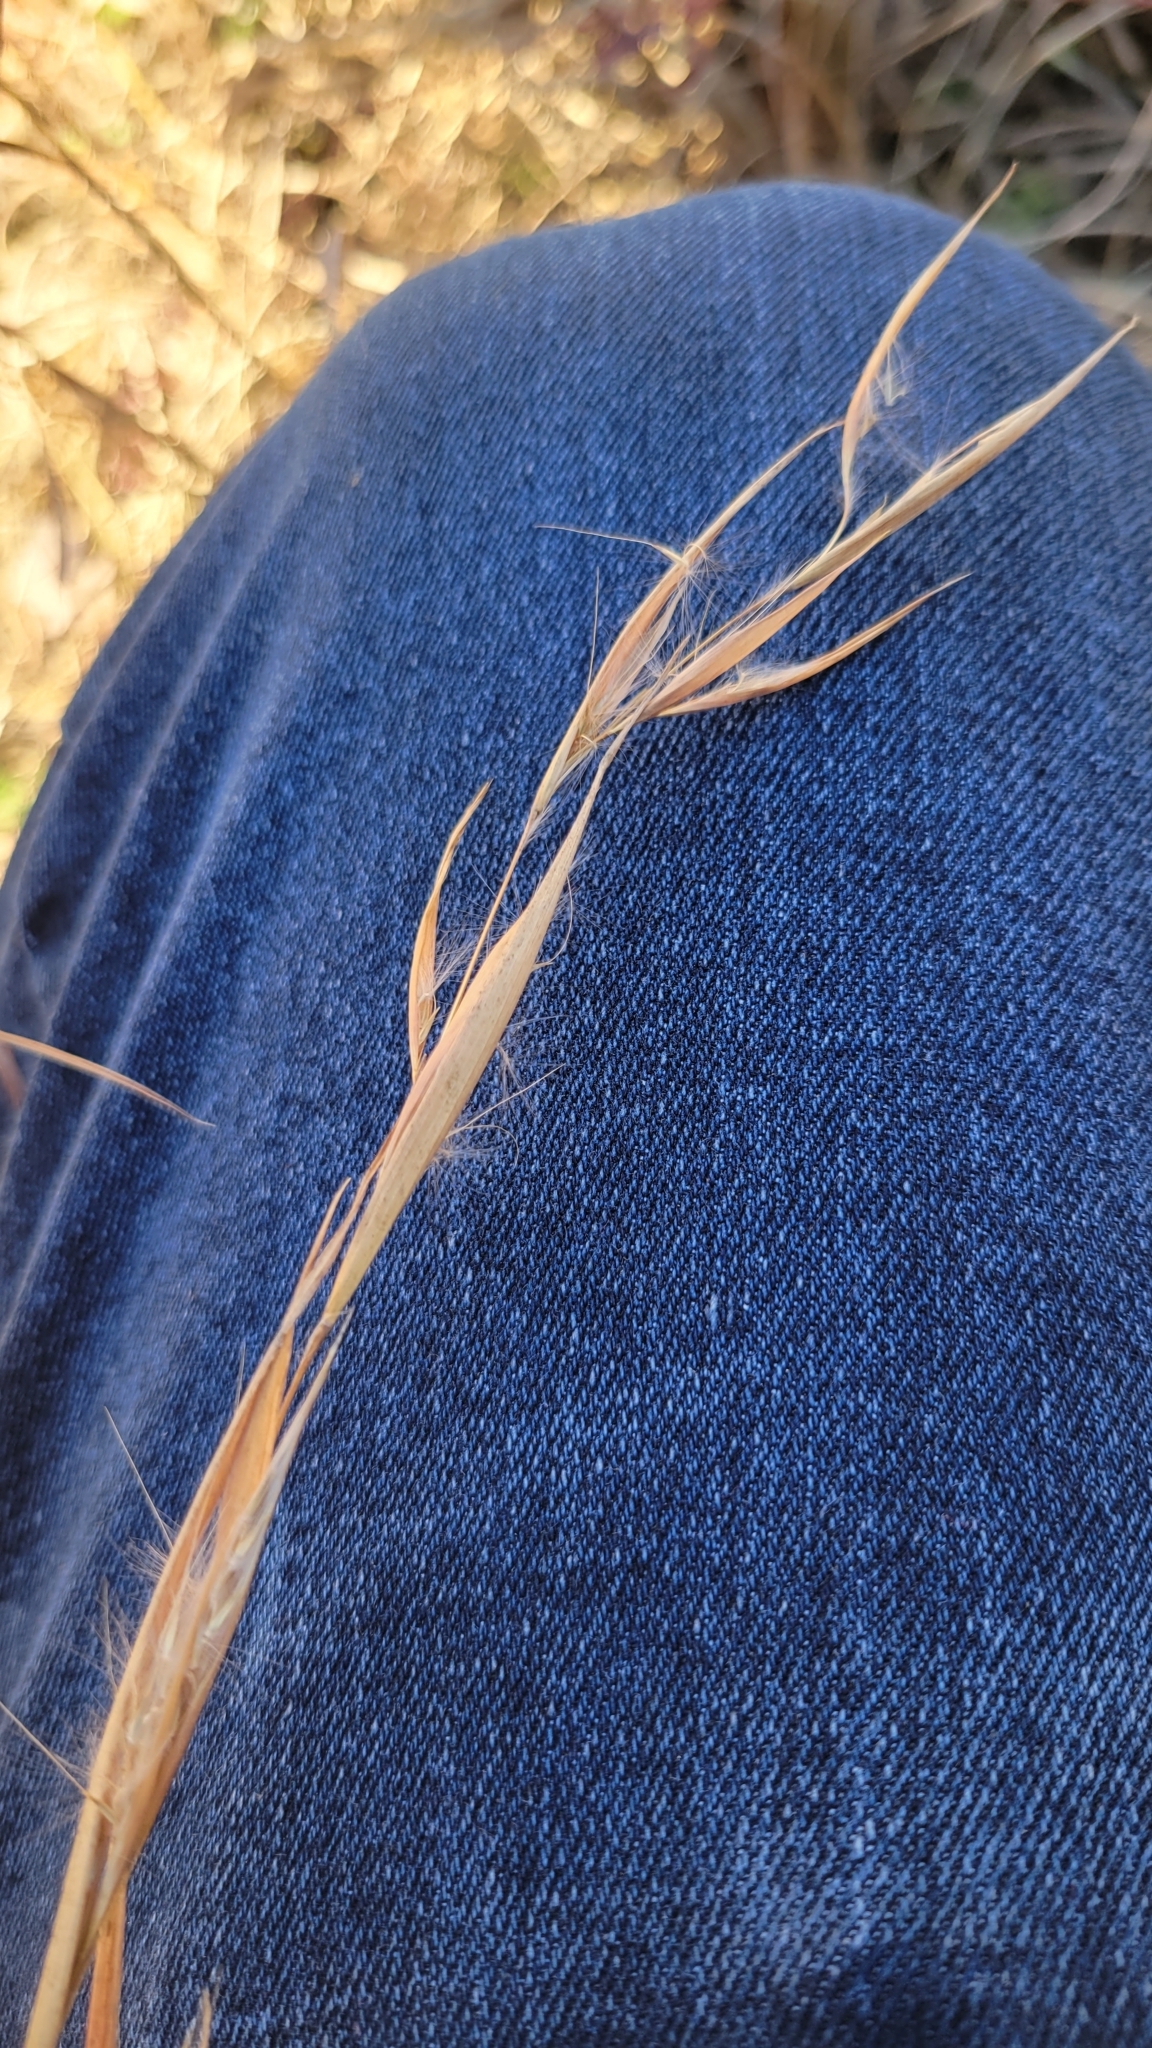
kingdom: Plantae
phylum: Tracheophyta
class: Liliopsida
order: Poales
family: Poaceae
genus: Andropogon
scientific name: Andropogon ternarius
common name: Split bluestem
